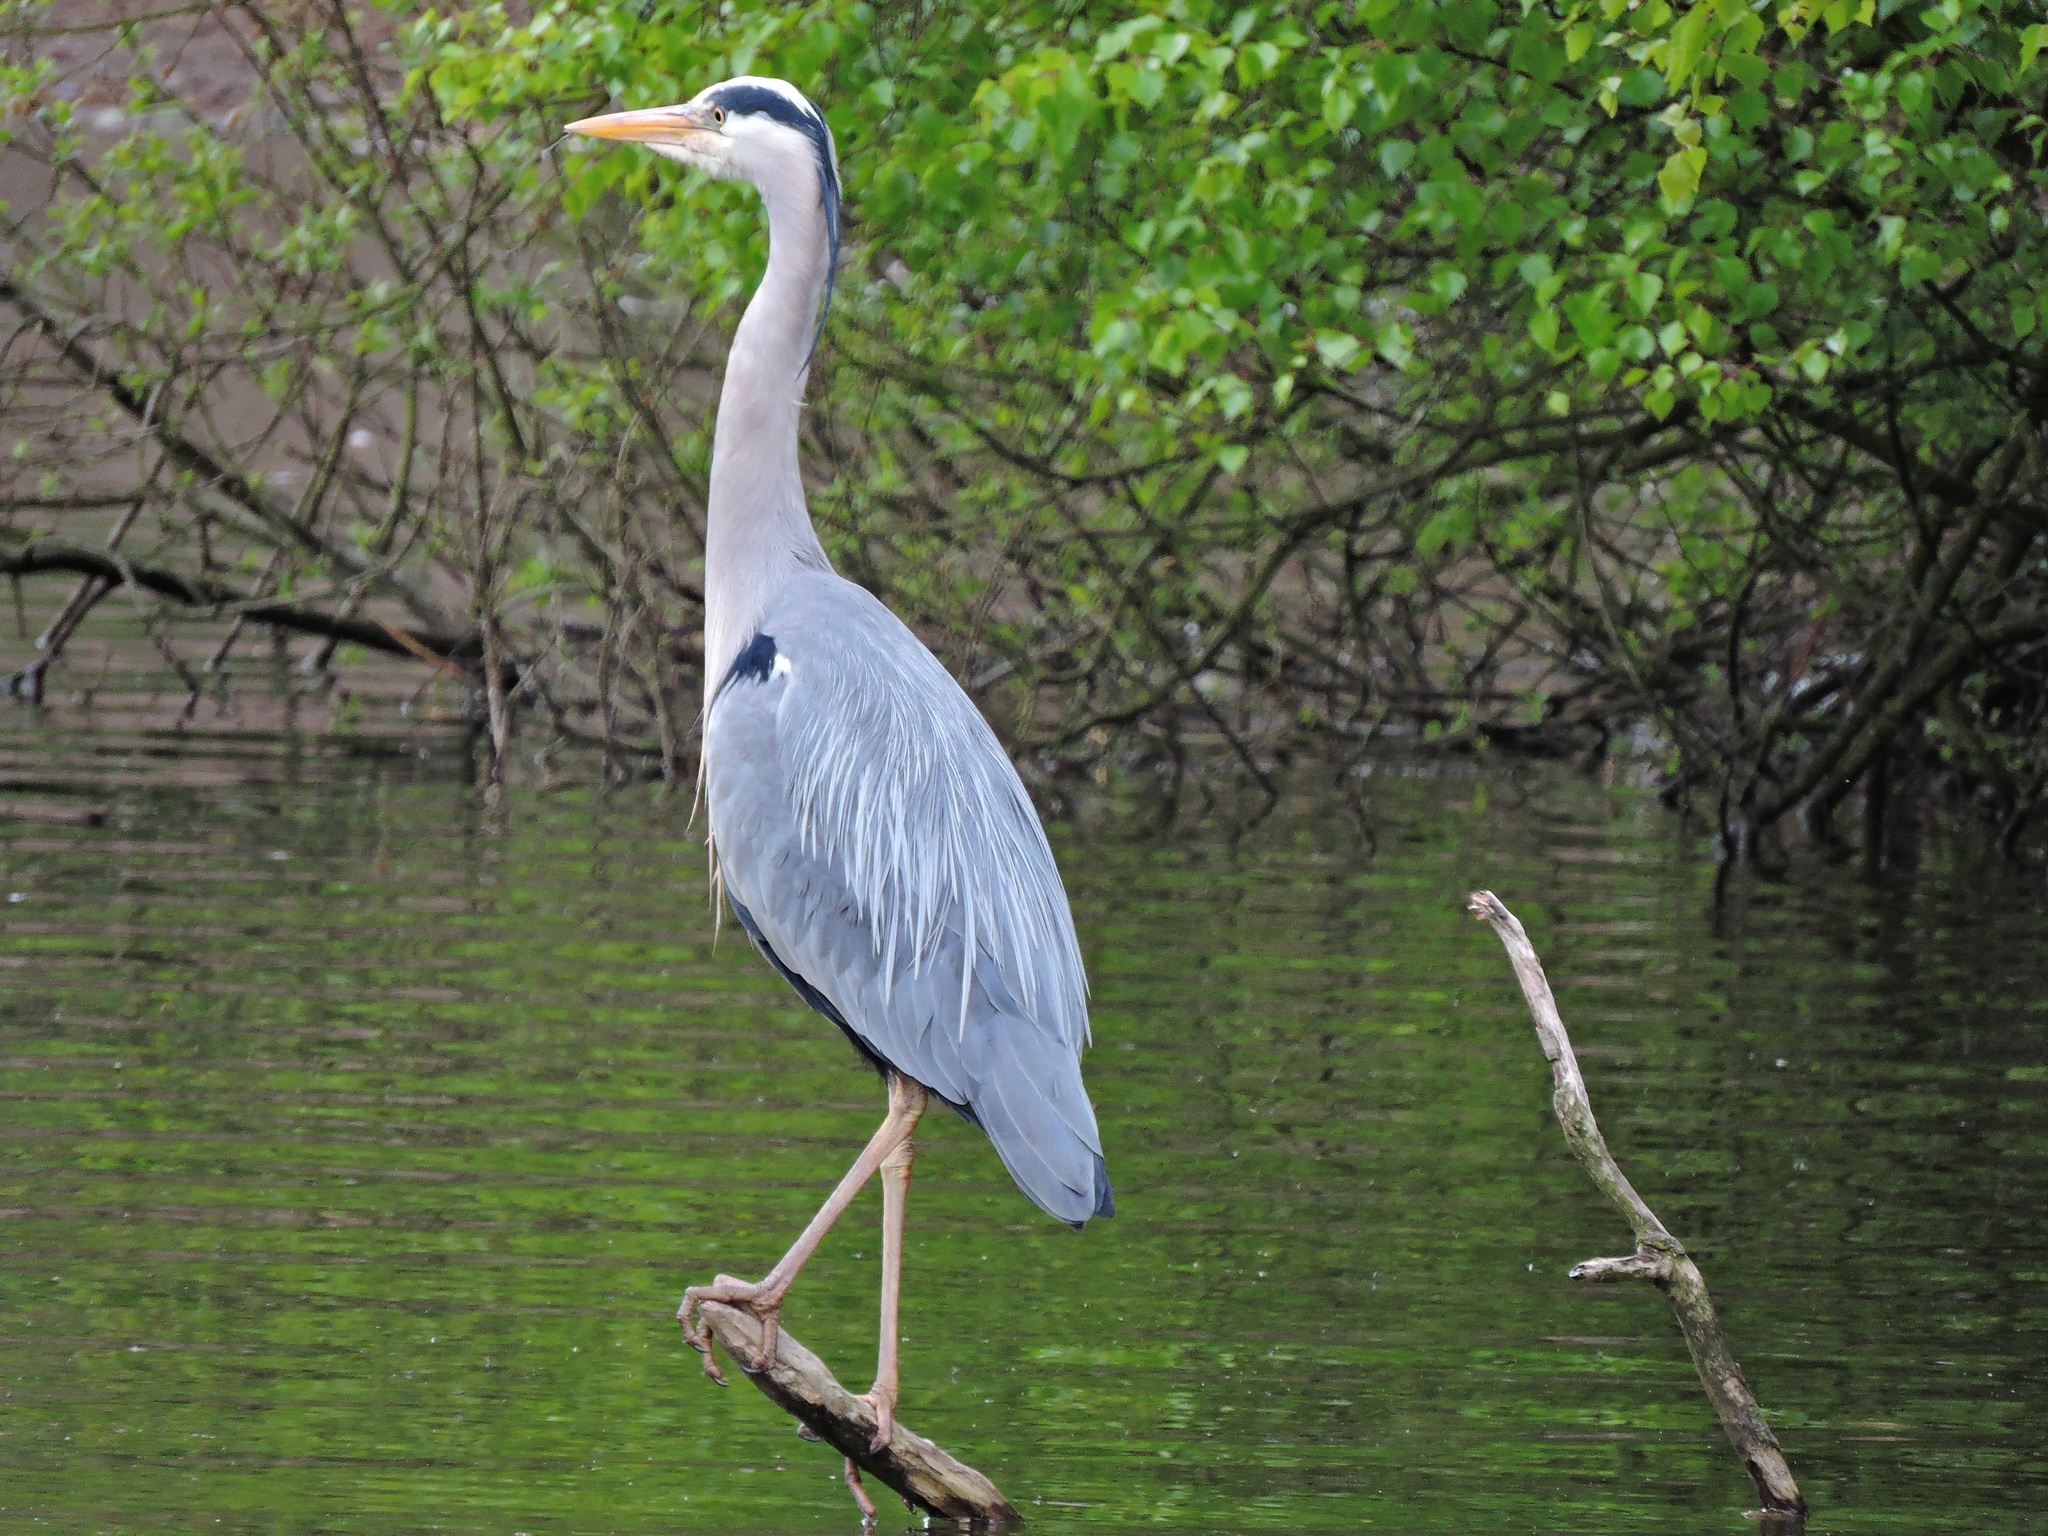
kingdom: Animalia
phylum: Chordata
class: Aves
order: Pelecaniformes
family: Ardeidae
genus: Ardea
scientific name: Ardea cinerea
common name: Grey heron
